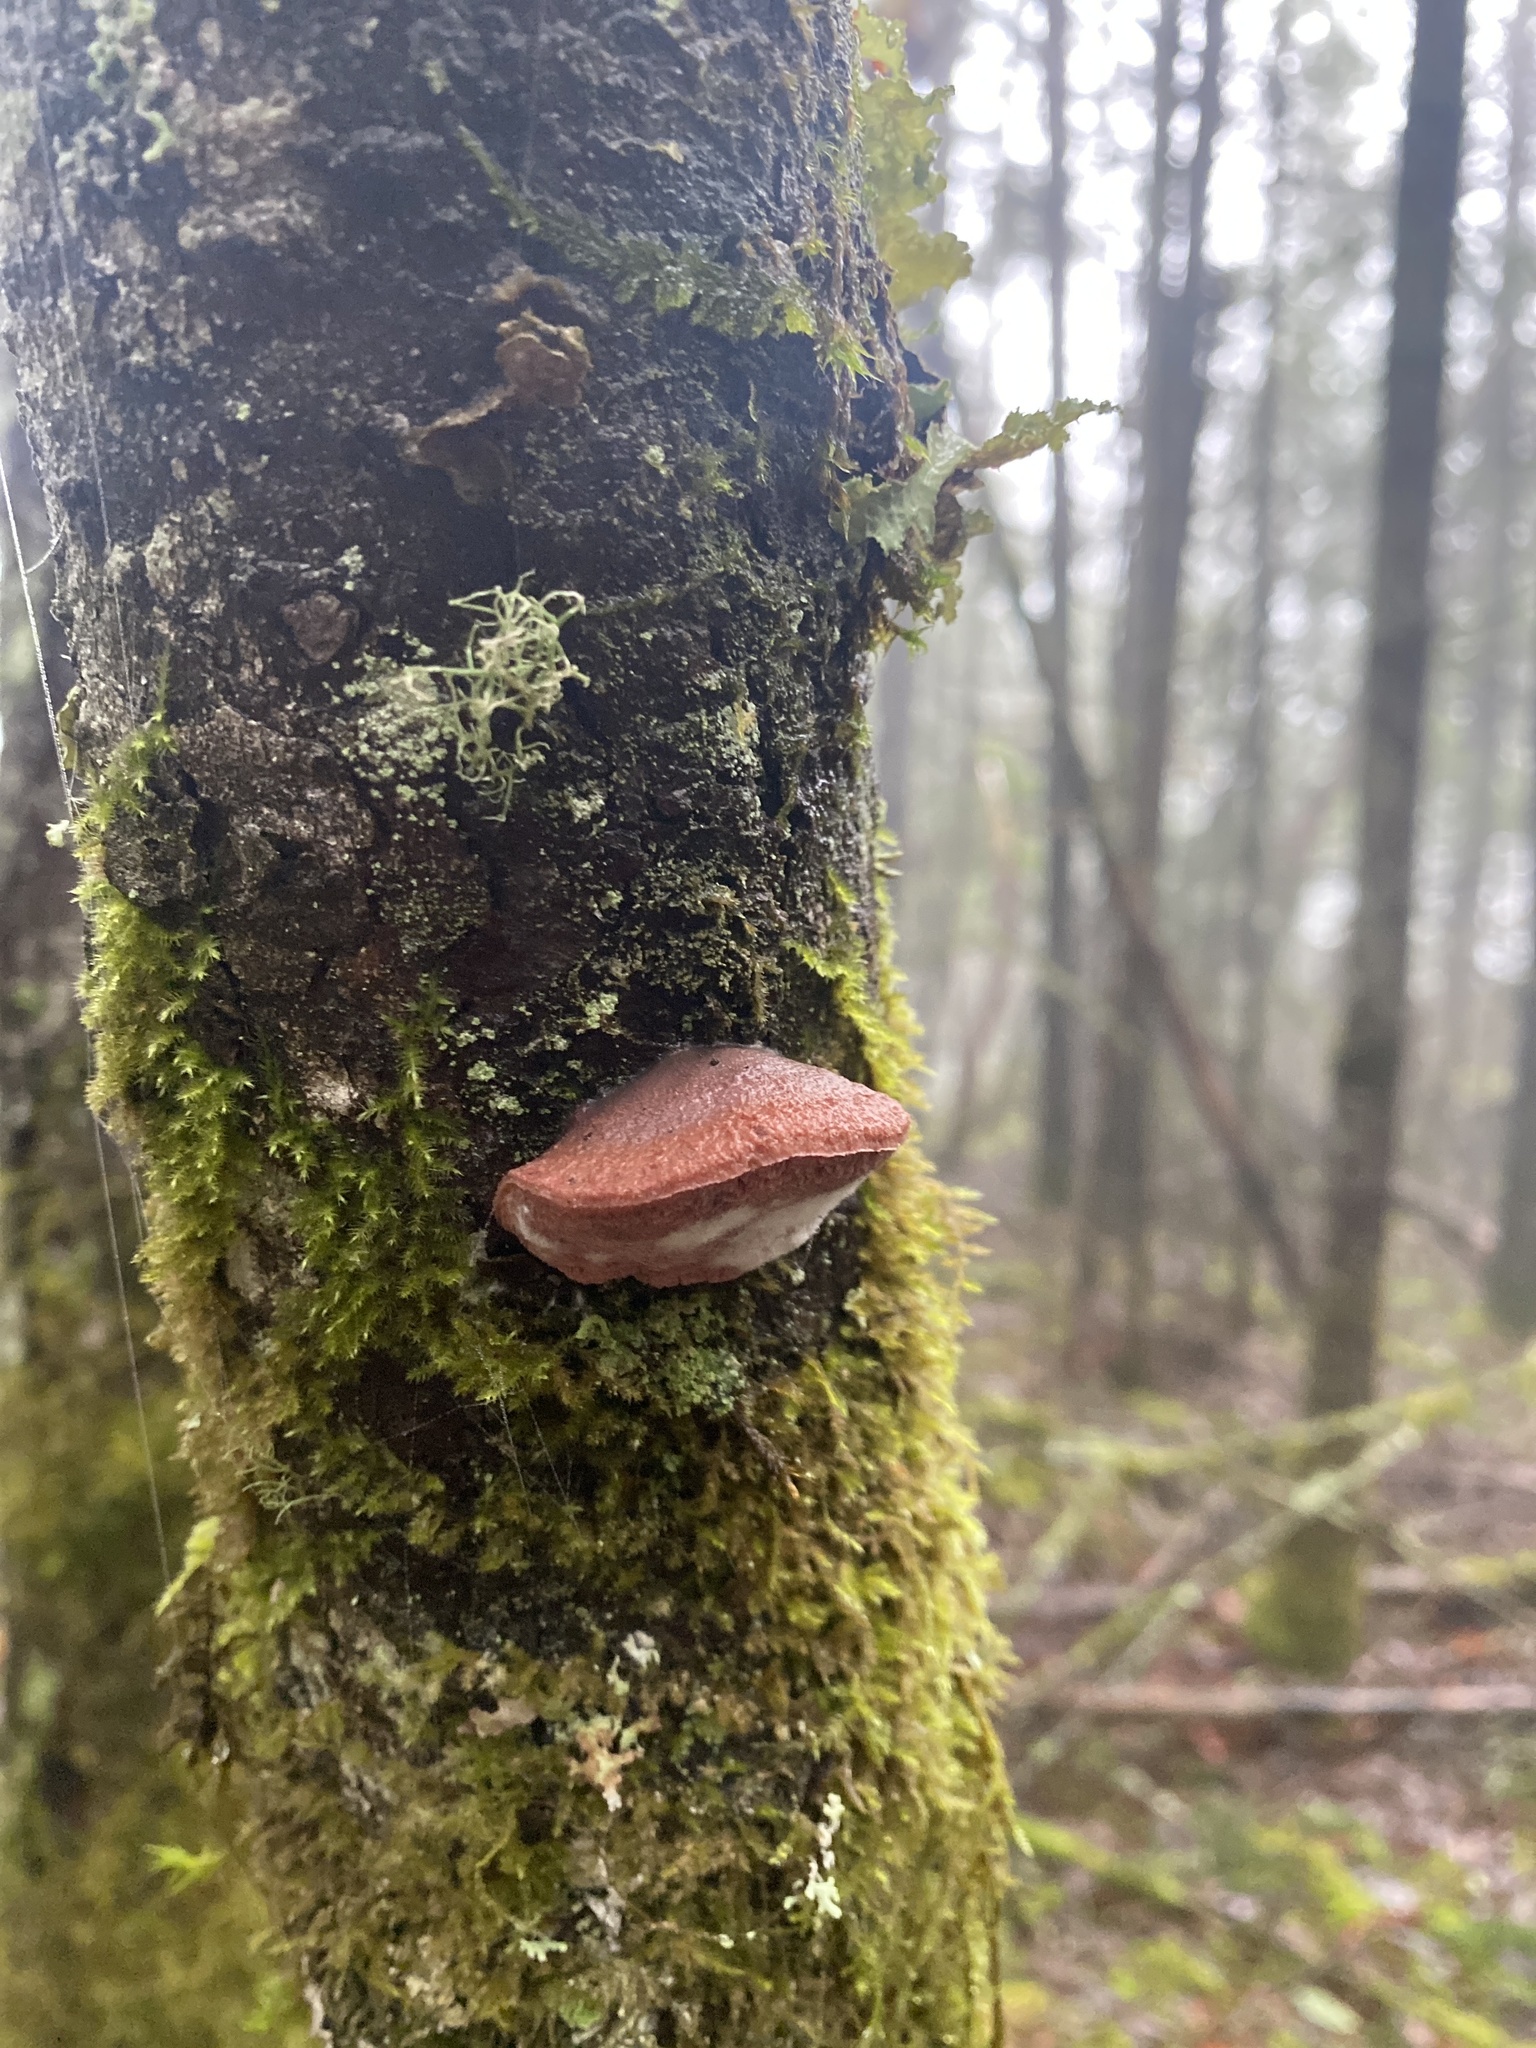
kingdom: Fungi
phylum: Basidiomycota
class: Agaricomycetes
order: Polyporales
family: Fomitopsidaceae
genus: Rhodofomes
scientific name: Rhodofomes cajanderi
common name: Rosy conk
